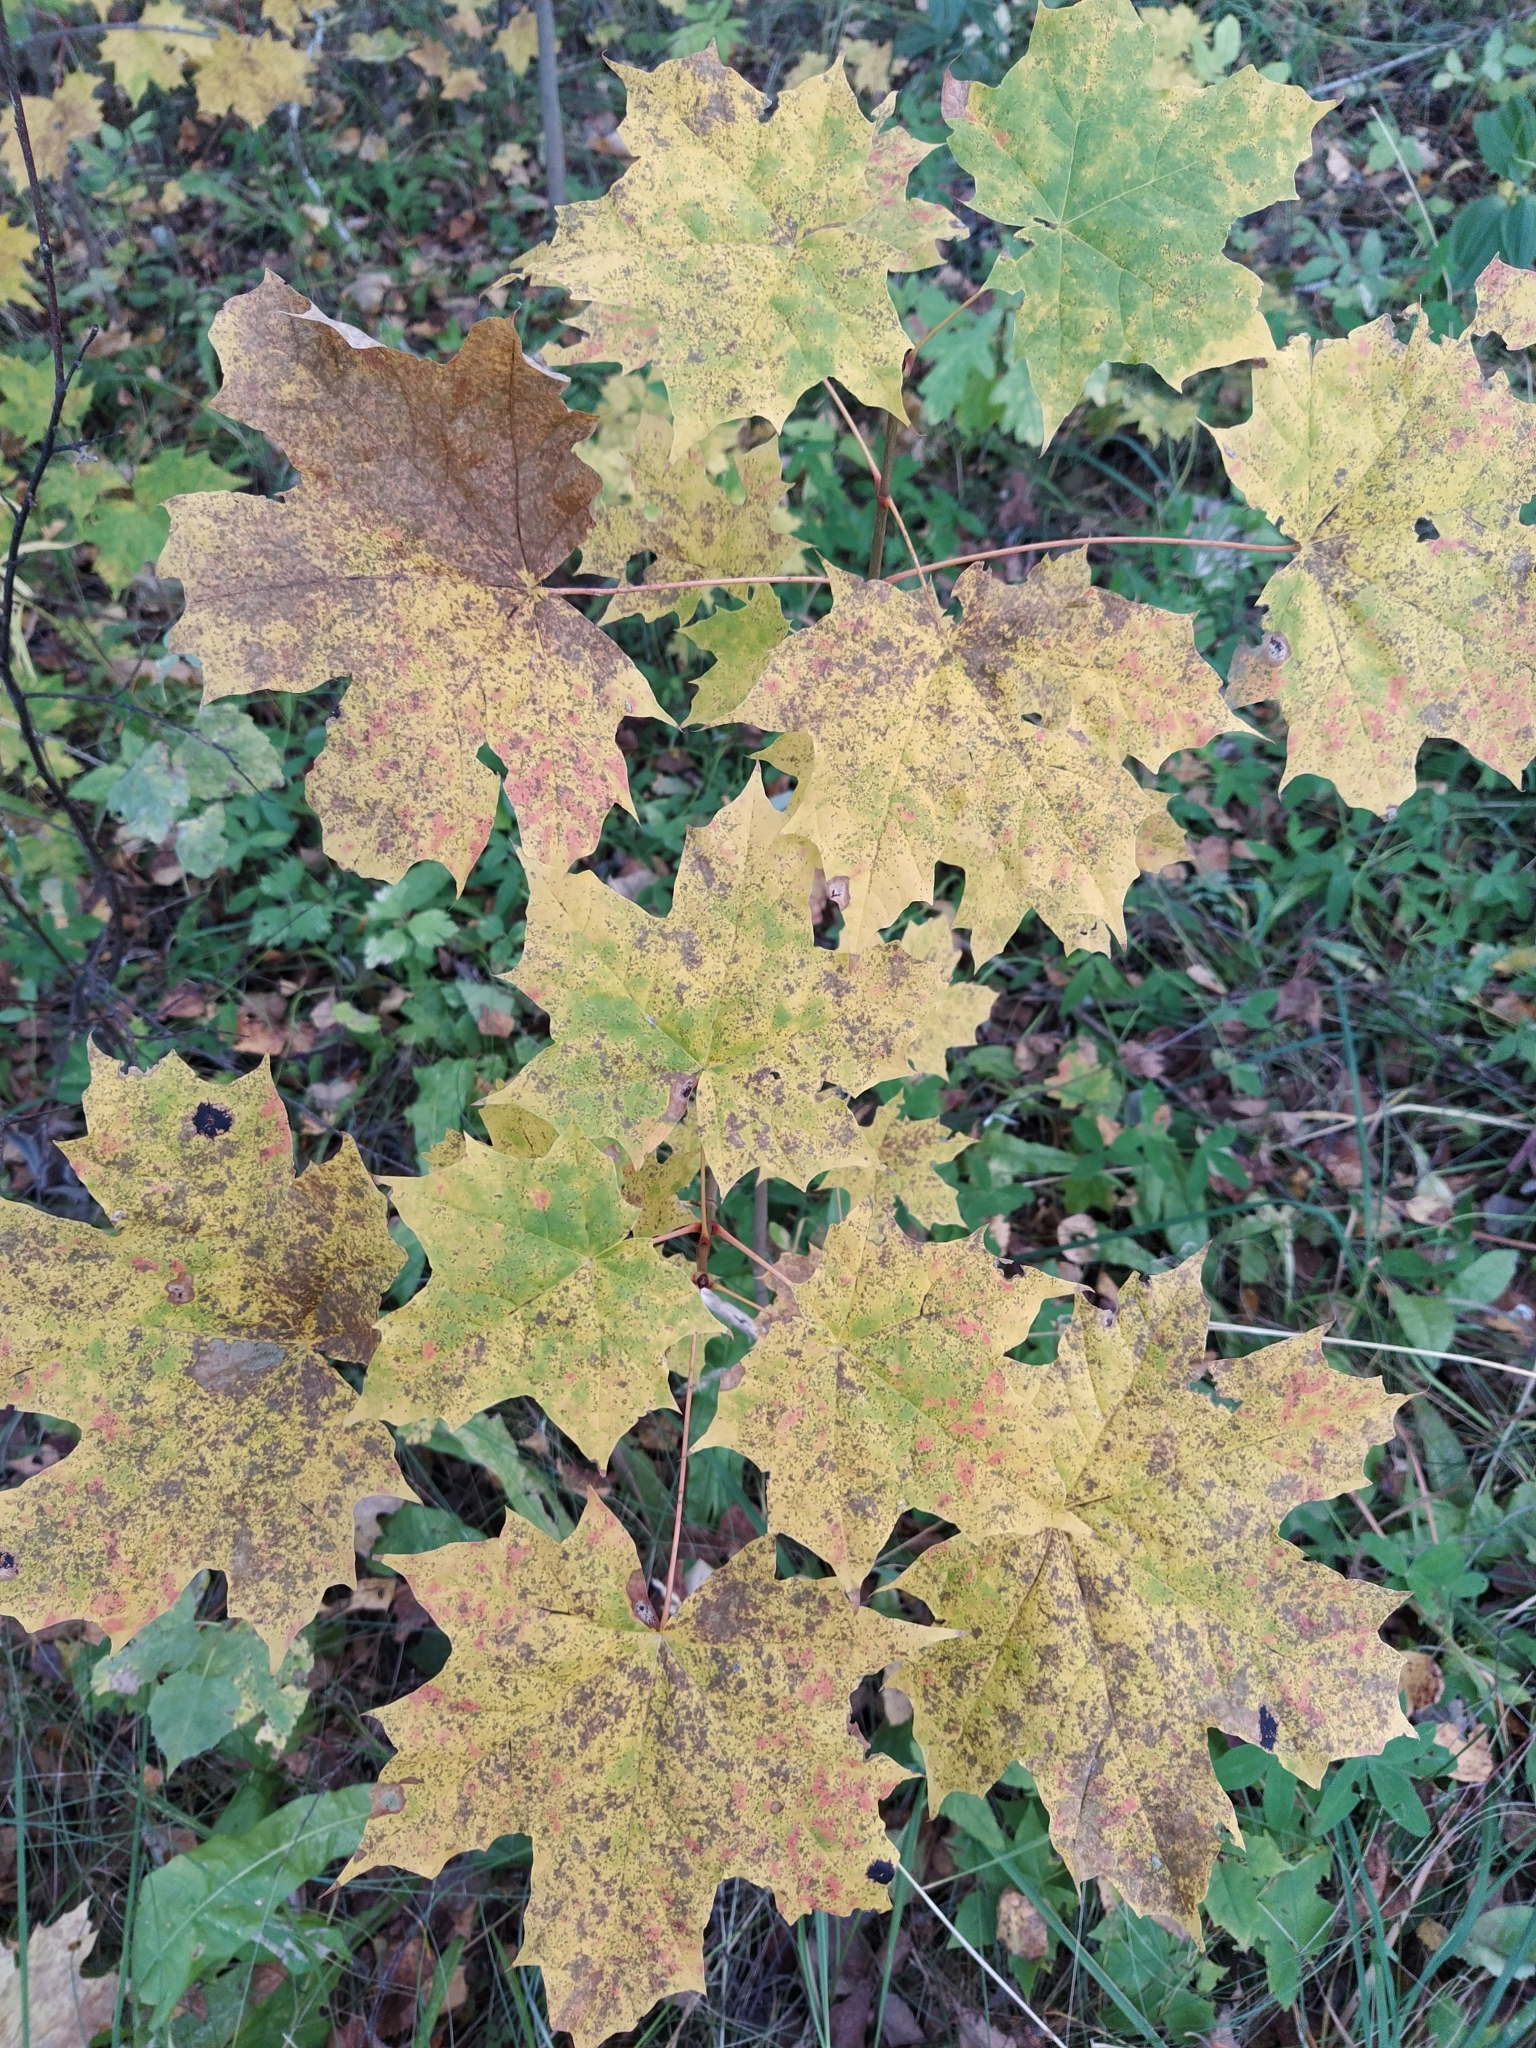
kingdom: Plantae
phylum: Tracheophyta
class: Magnoliopsida
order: Sapindales
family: Sapindaceae
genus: Acer
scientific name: Acer platanoides
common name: Norway maple
